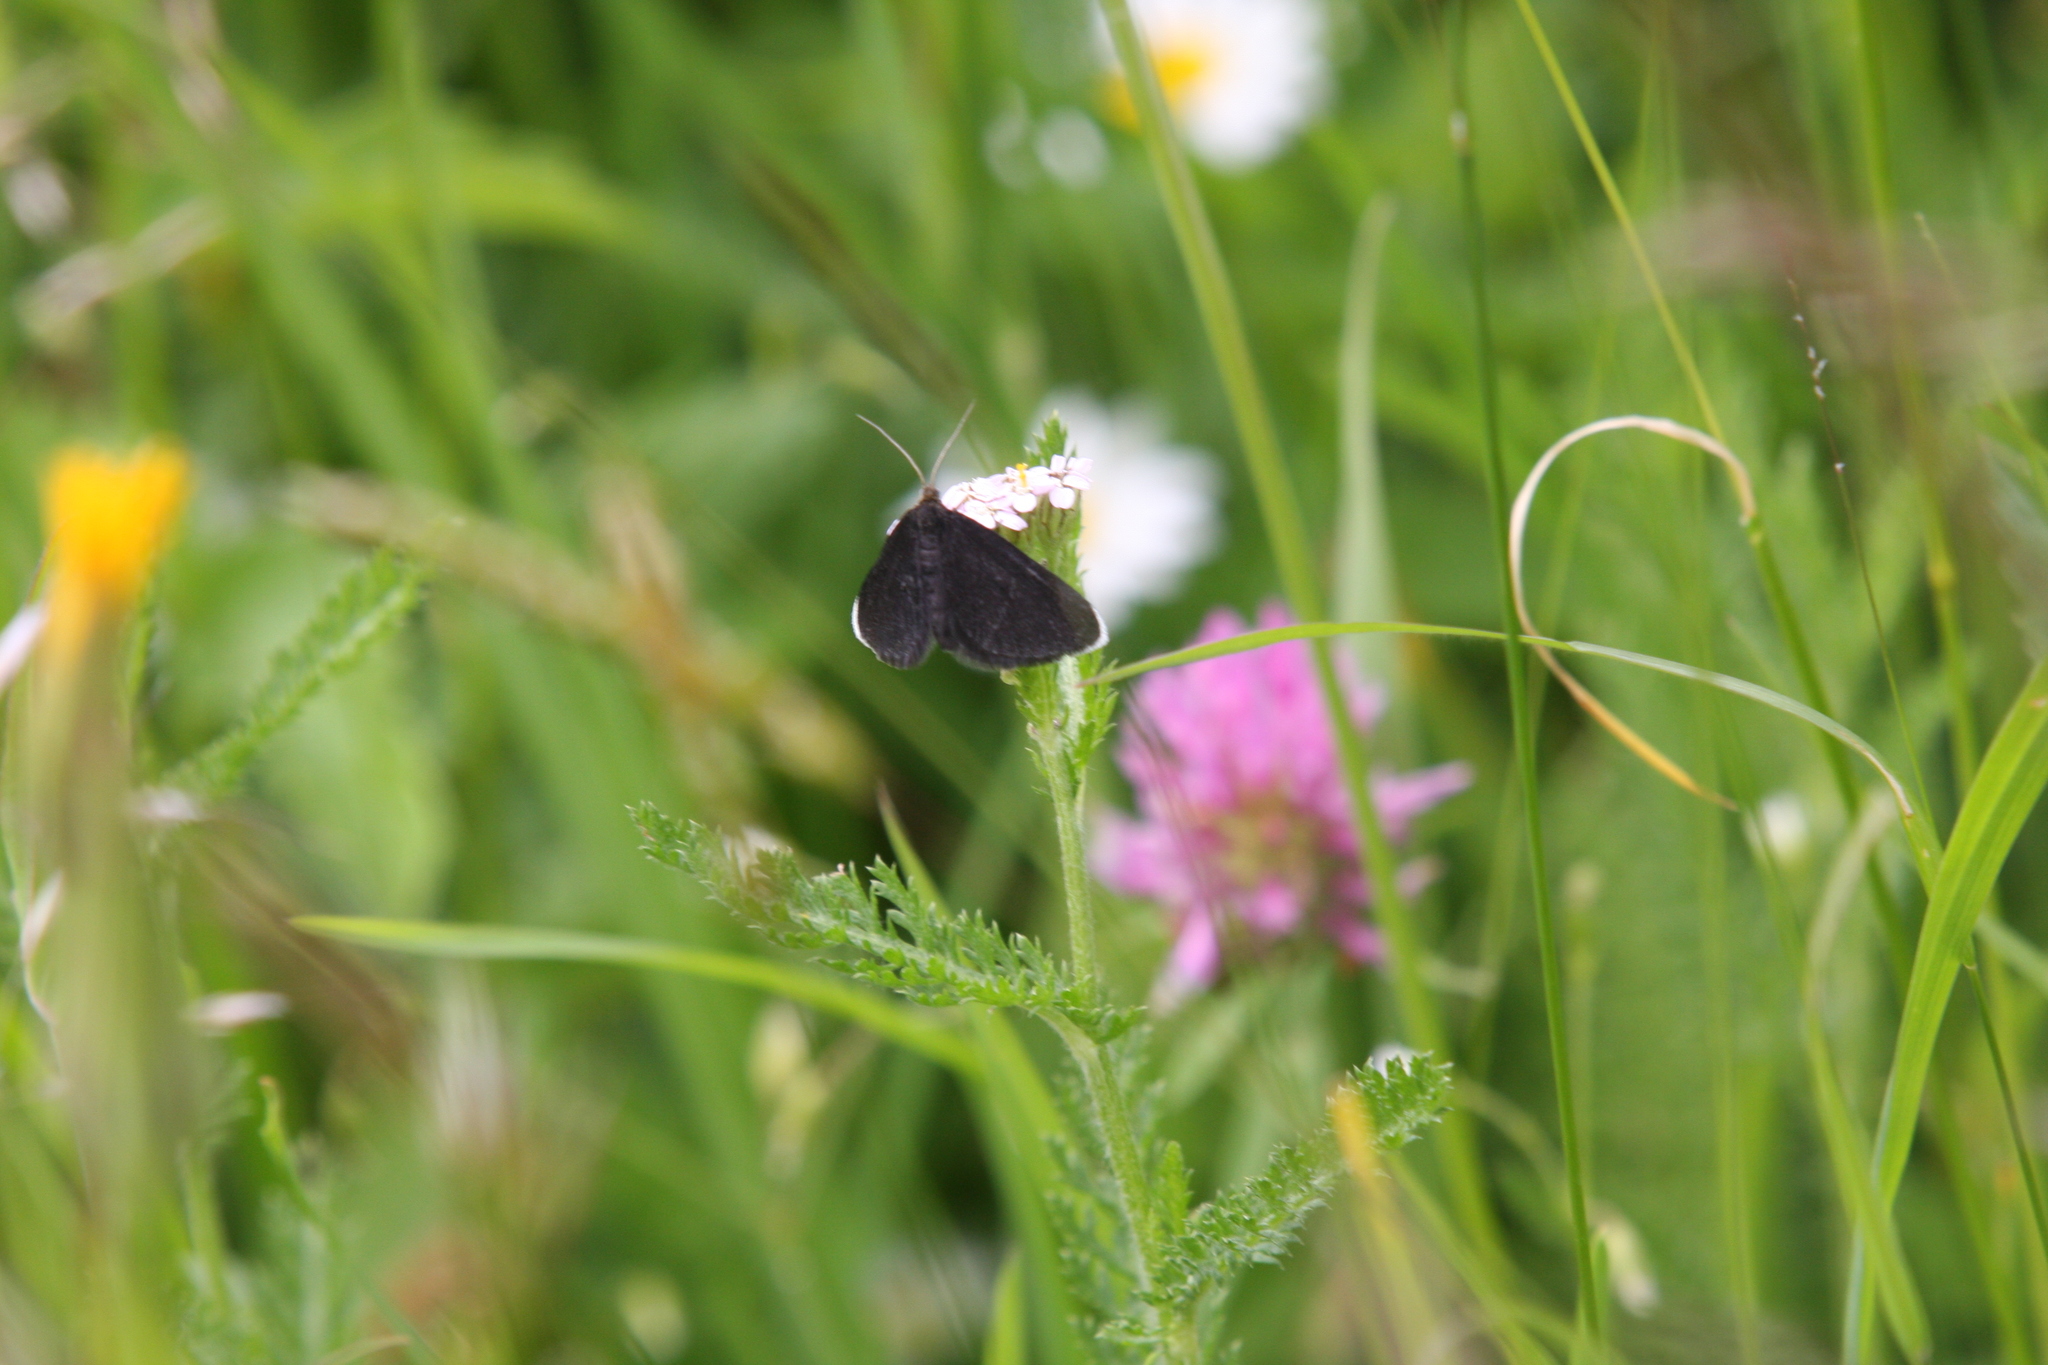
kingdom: Animalia
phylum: Arthropoda
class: Insecta
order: Lepidoptera
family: Geometridae
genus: Odezia
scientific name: Odezia atrata
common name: Chimney sweeper
